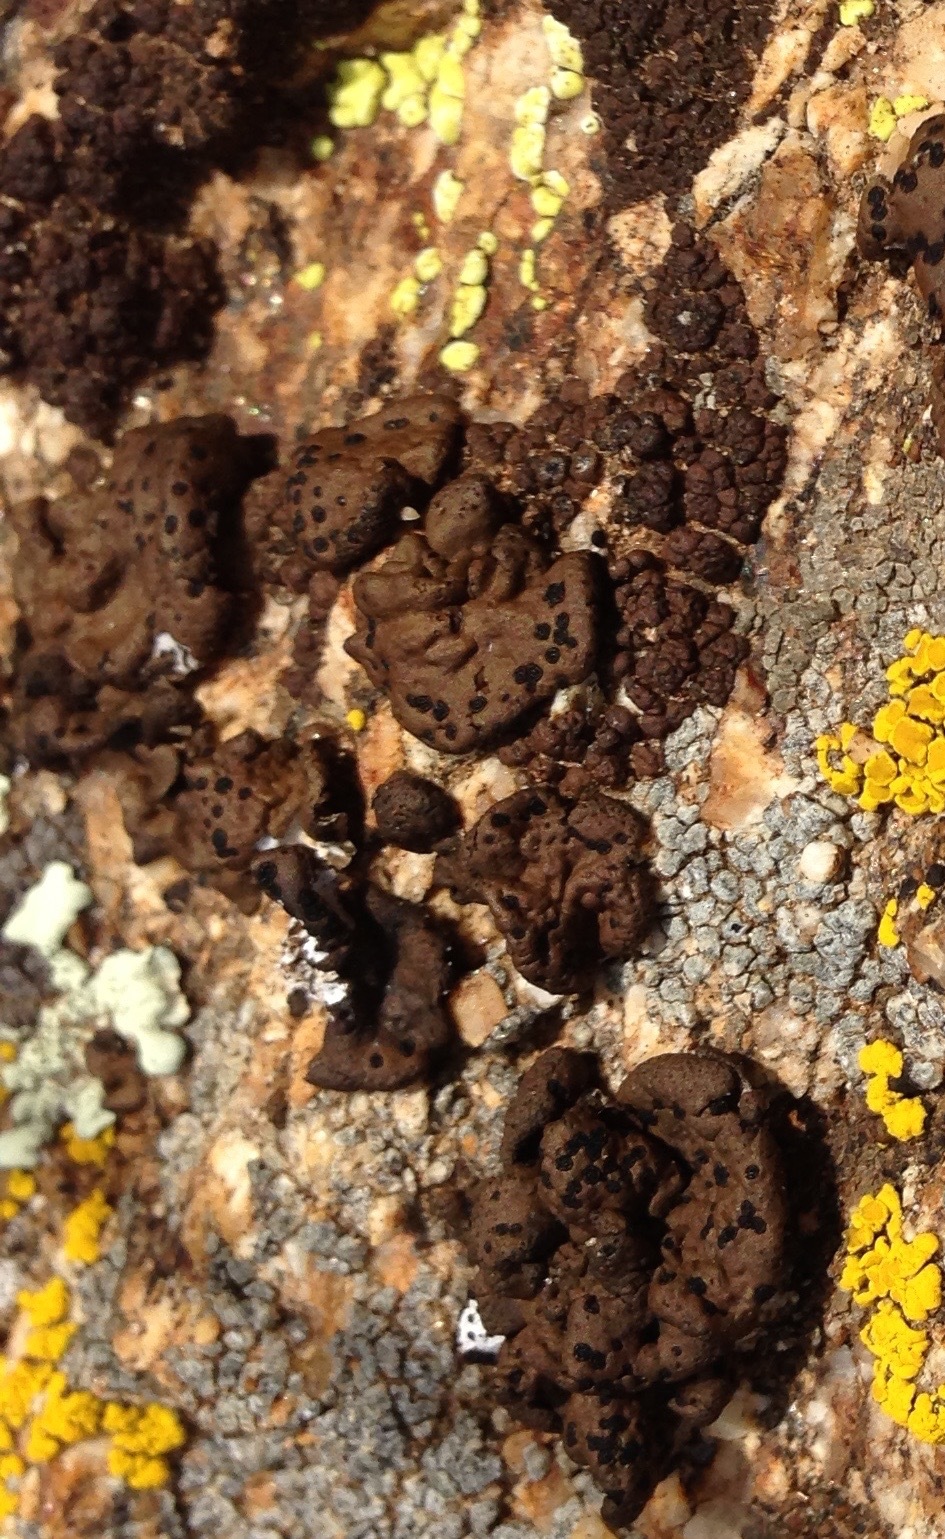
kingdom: Fungi
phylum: Ascomycota
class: Lecanoromycetes
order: Umbilicariales
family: Umbilicariaceae
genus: Umbilicaria
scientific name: Umbilicaria phaea
